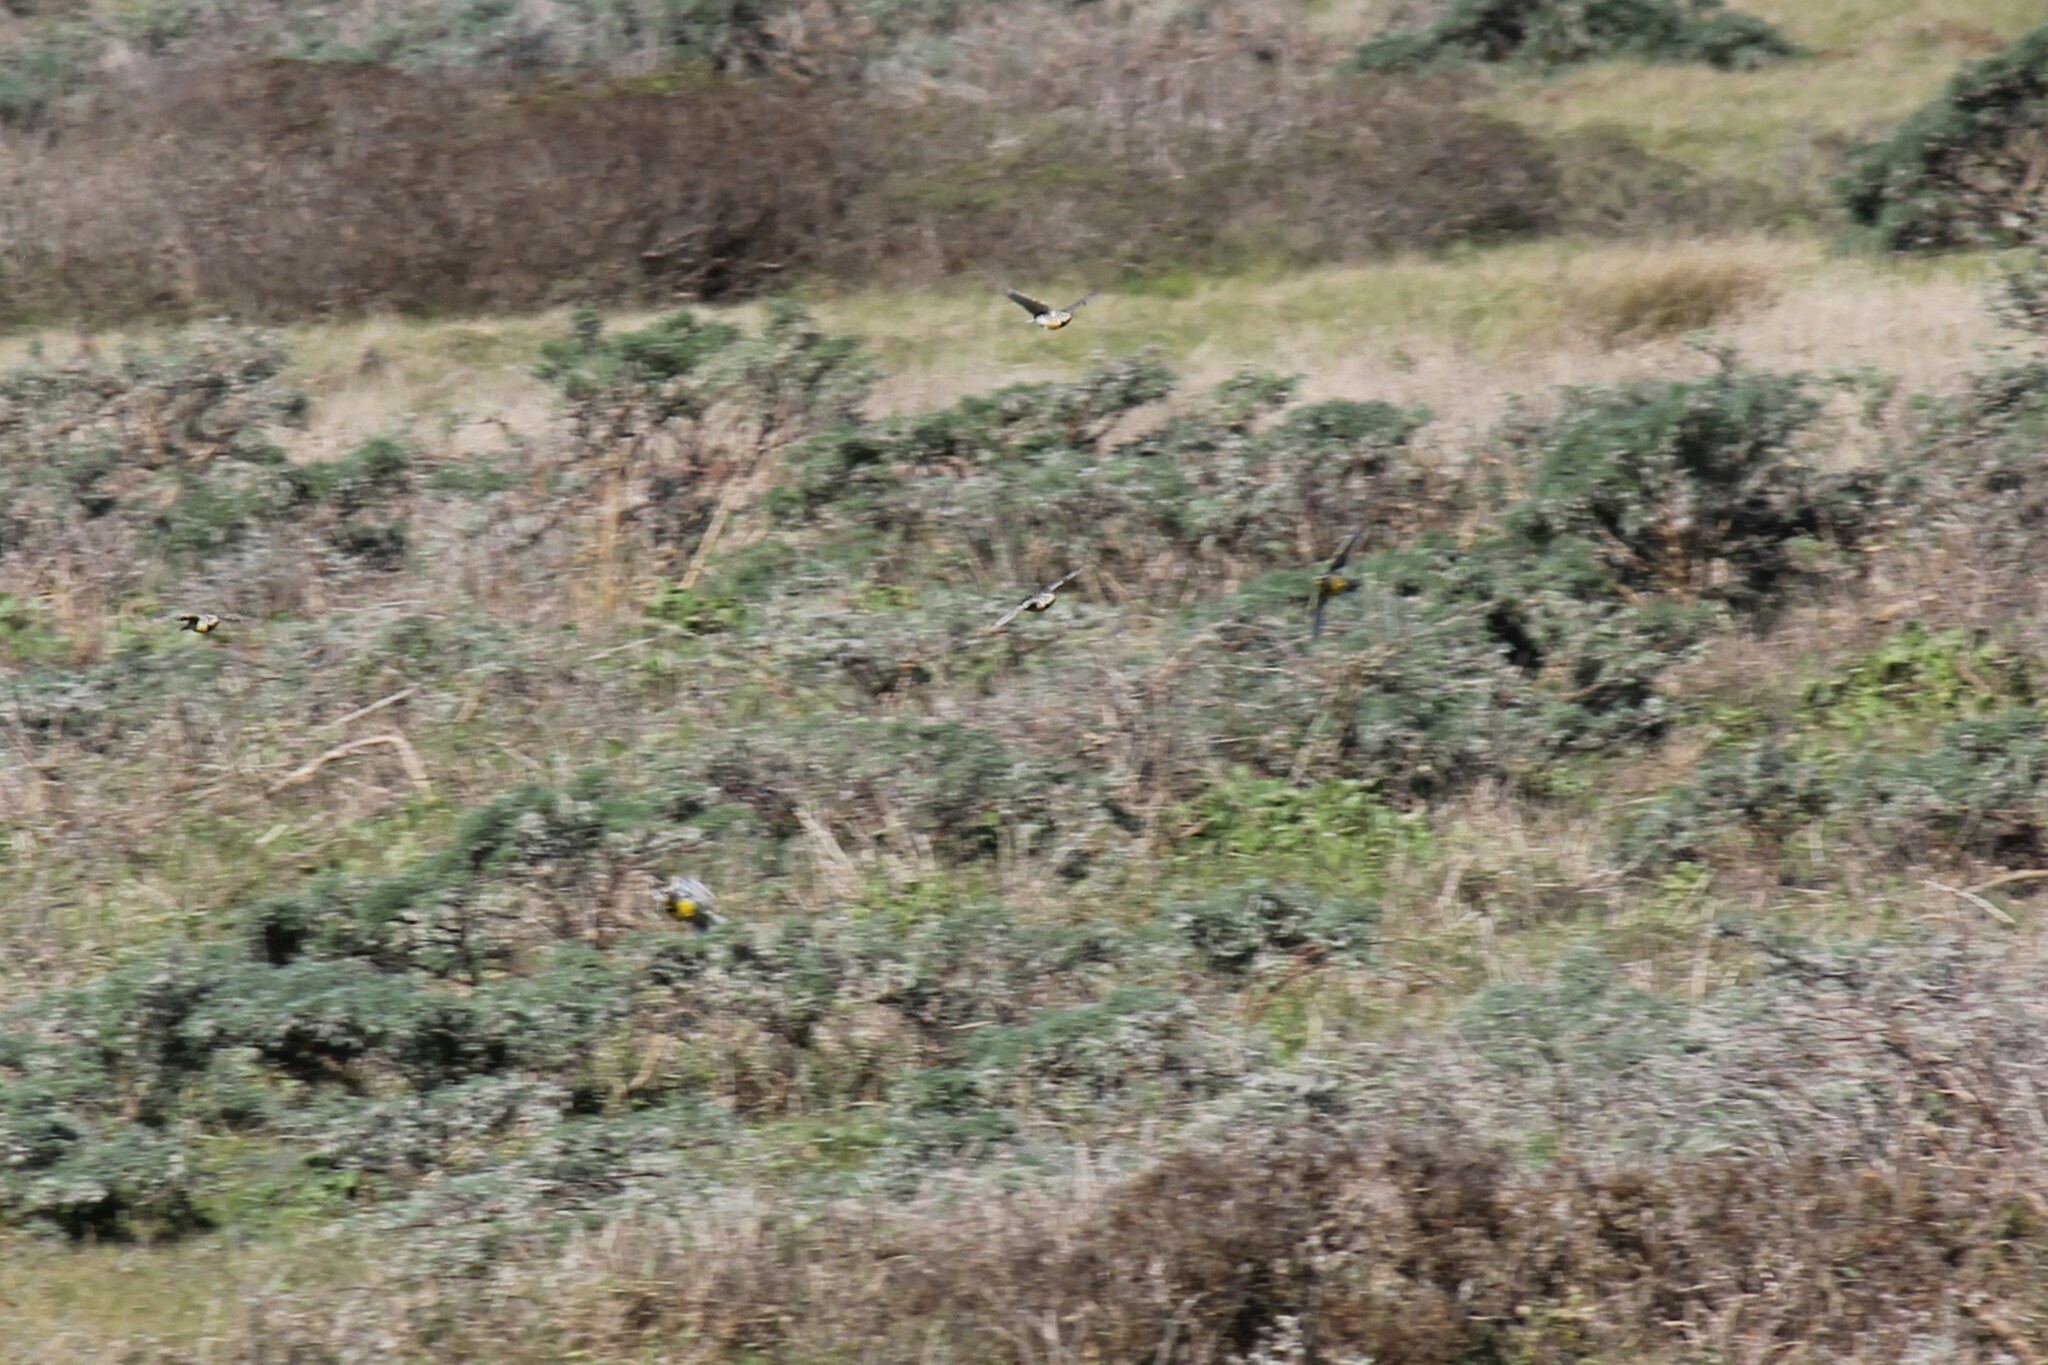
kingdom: Animalia
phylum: Chordata
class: Aves
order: Passeriformes
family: Icteridae
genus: Sturnella
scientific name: Sturnella neglecta
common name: Western meadowlark
